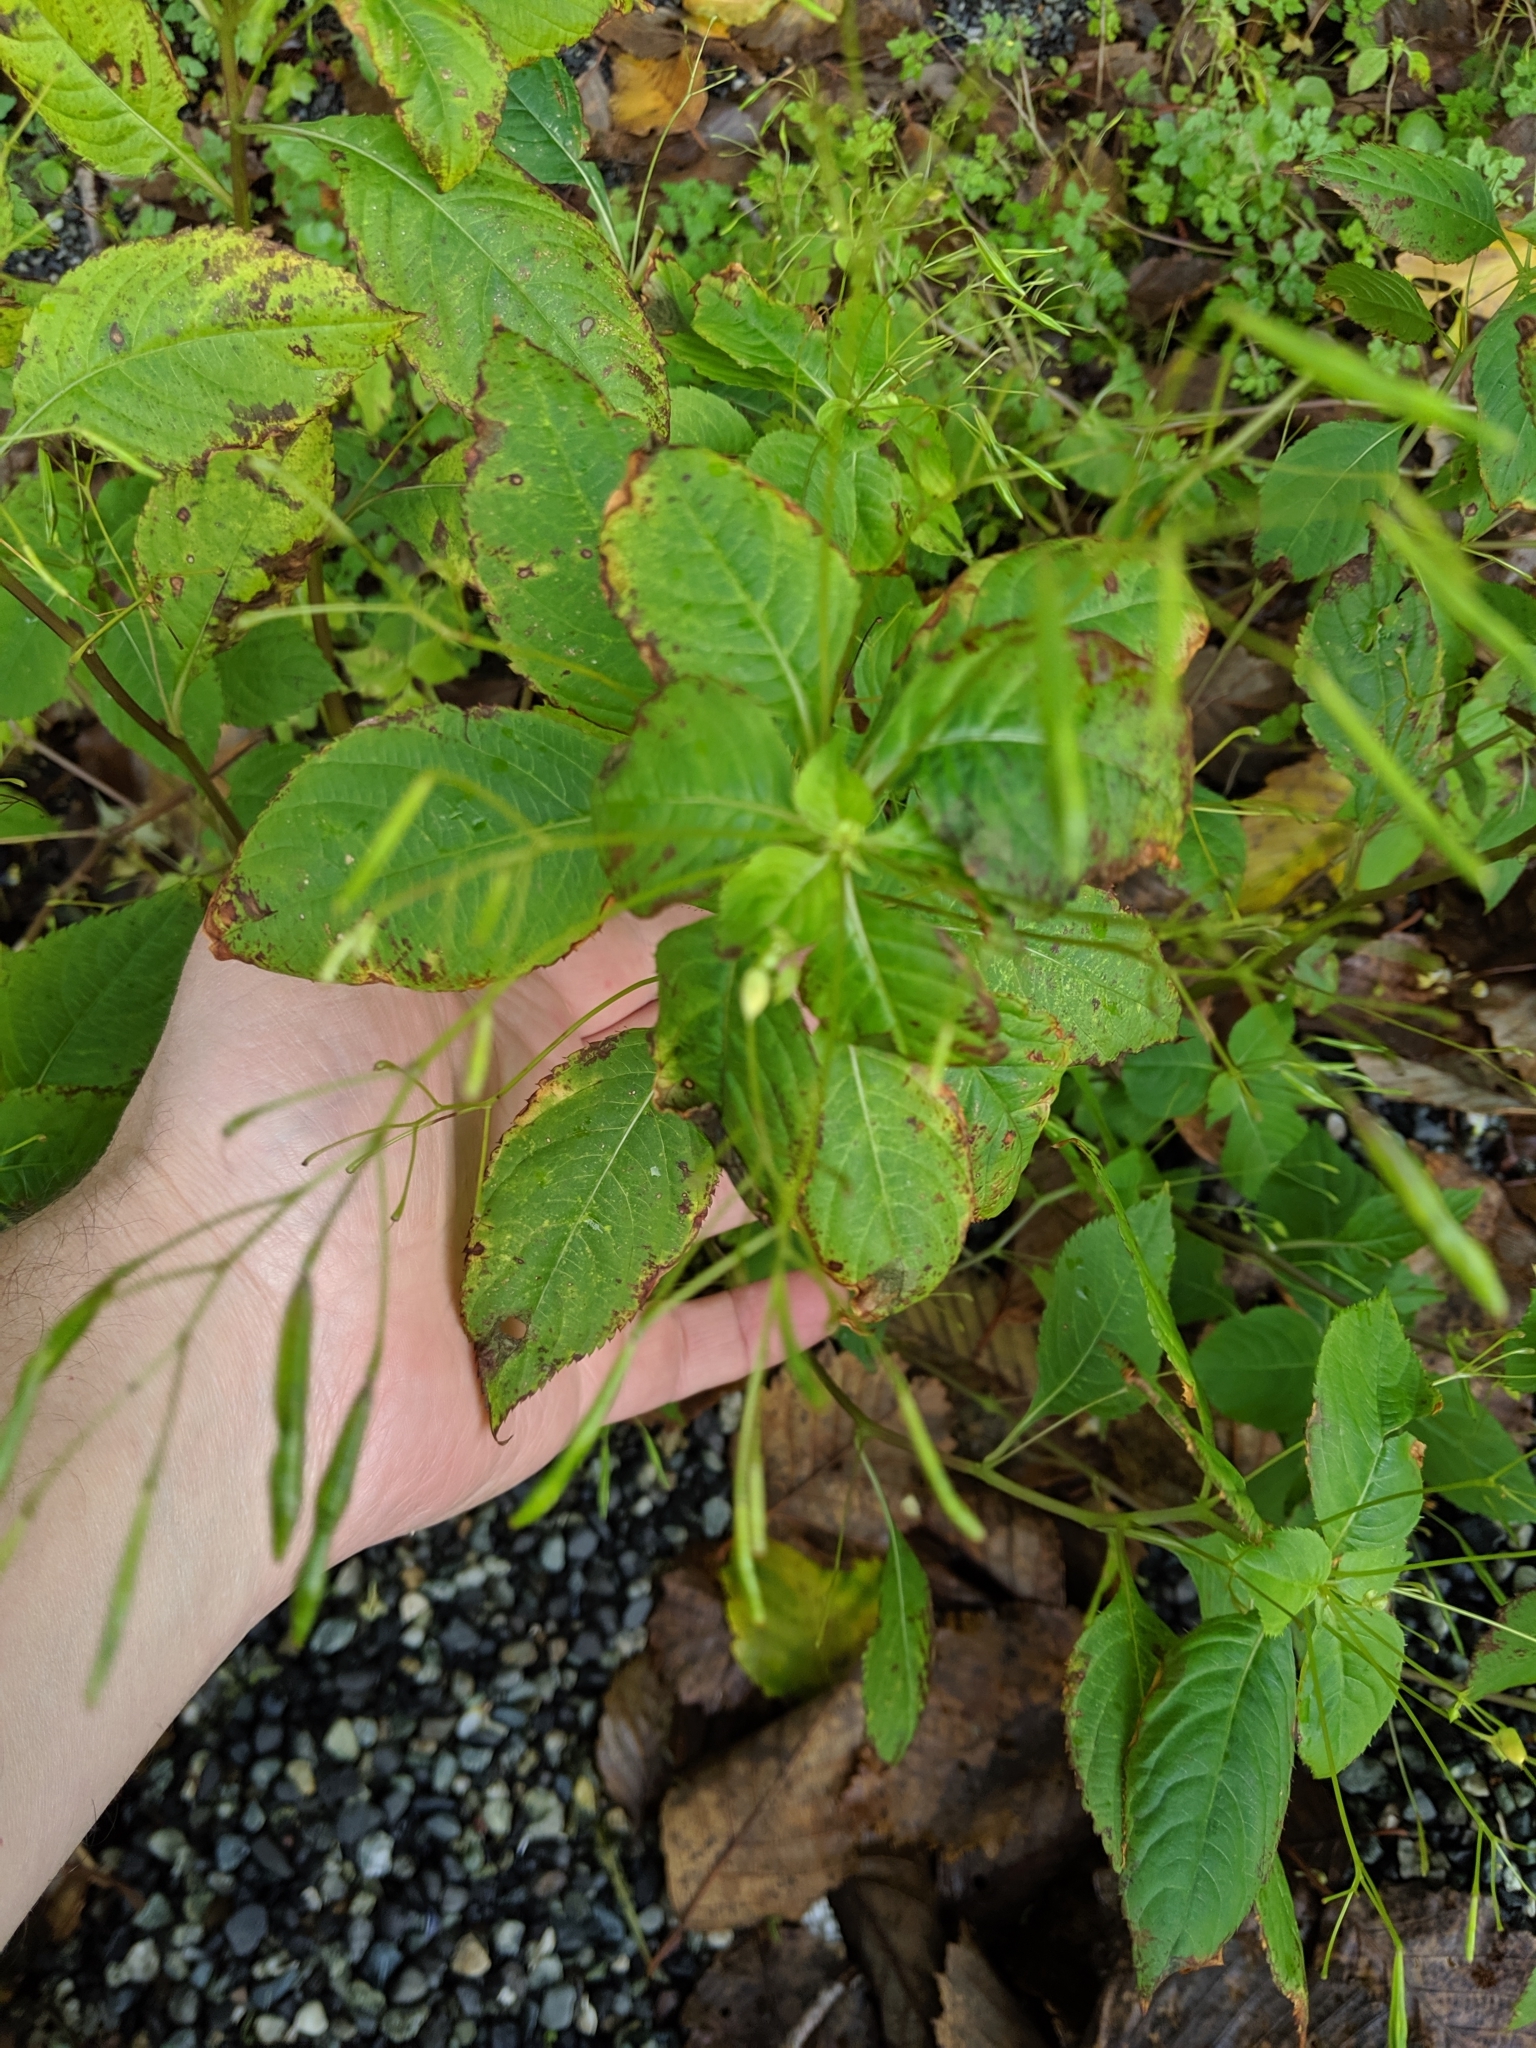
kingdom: Plantae
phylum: Tracheophyta
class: Magnoliopsida
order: Ericales
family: Balsaminaceae
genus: Impatiens
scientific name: Impatiens parviflora
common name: Small balsam
